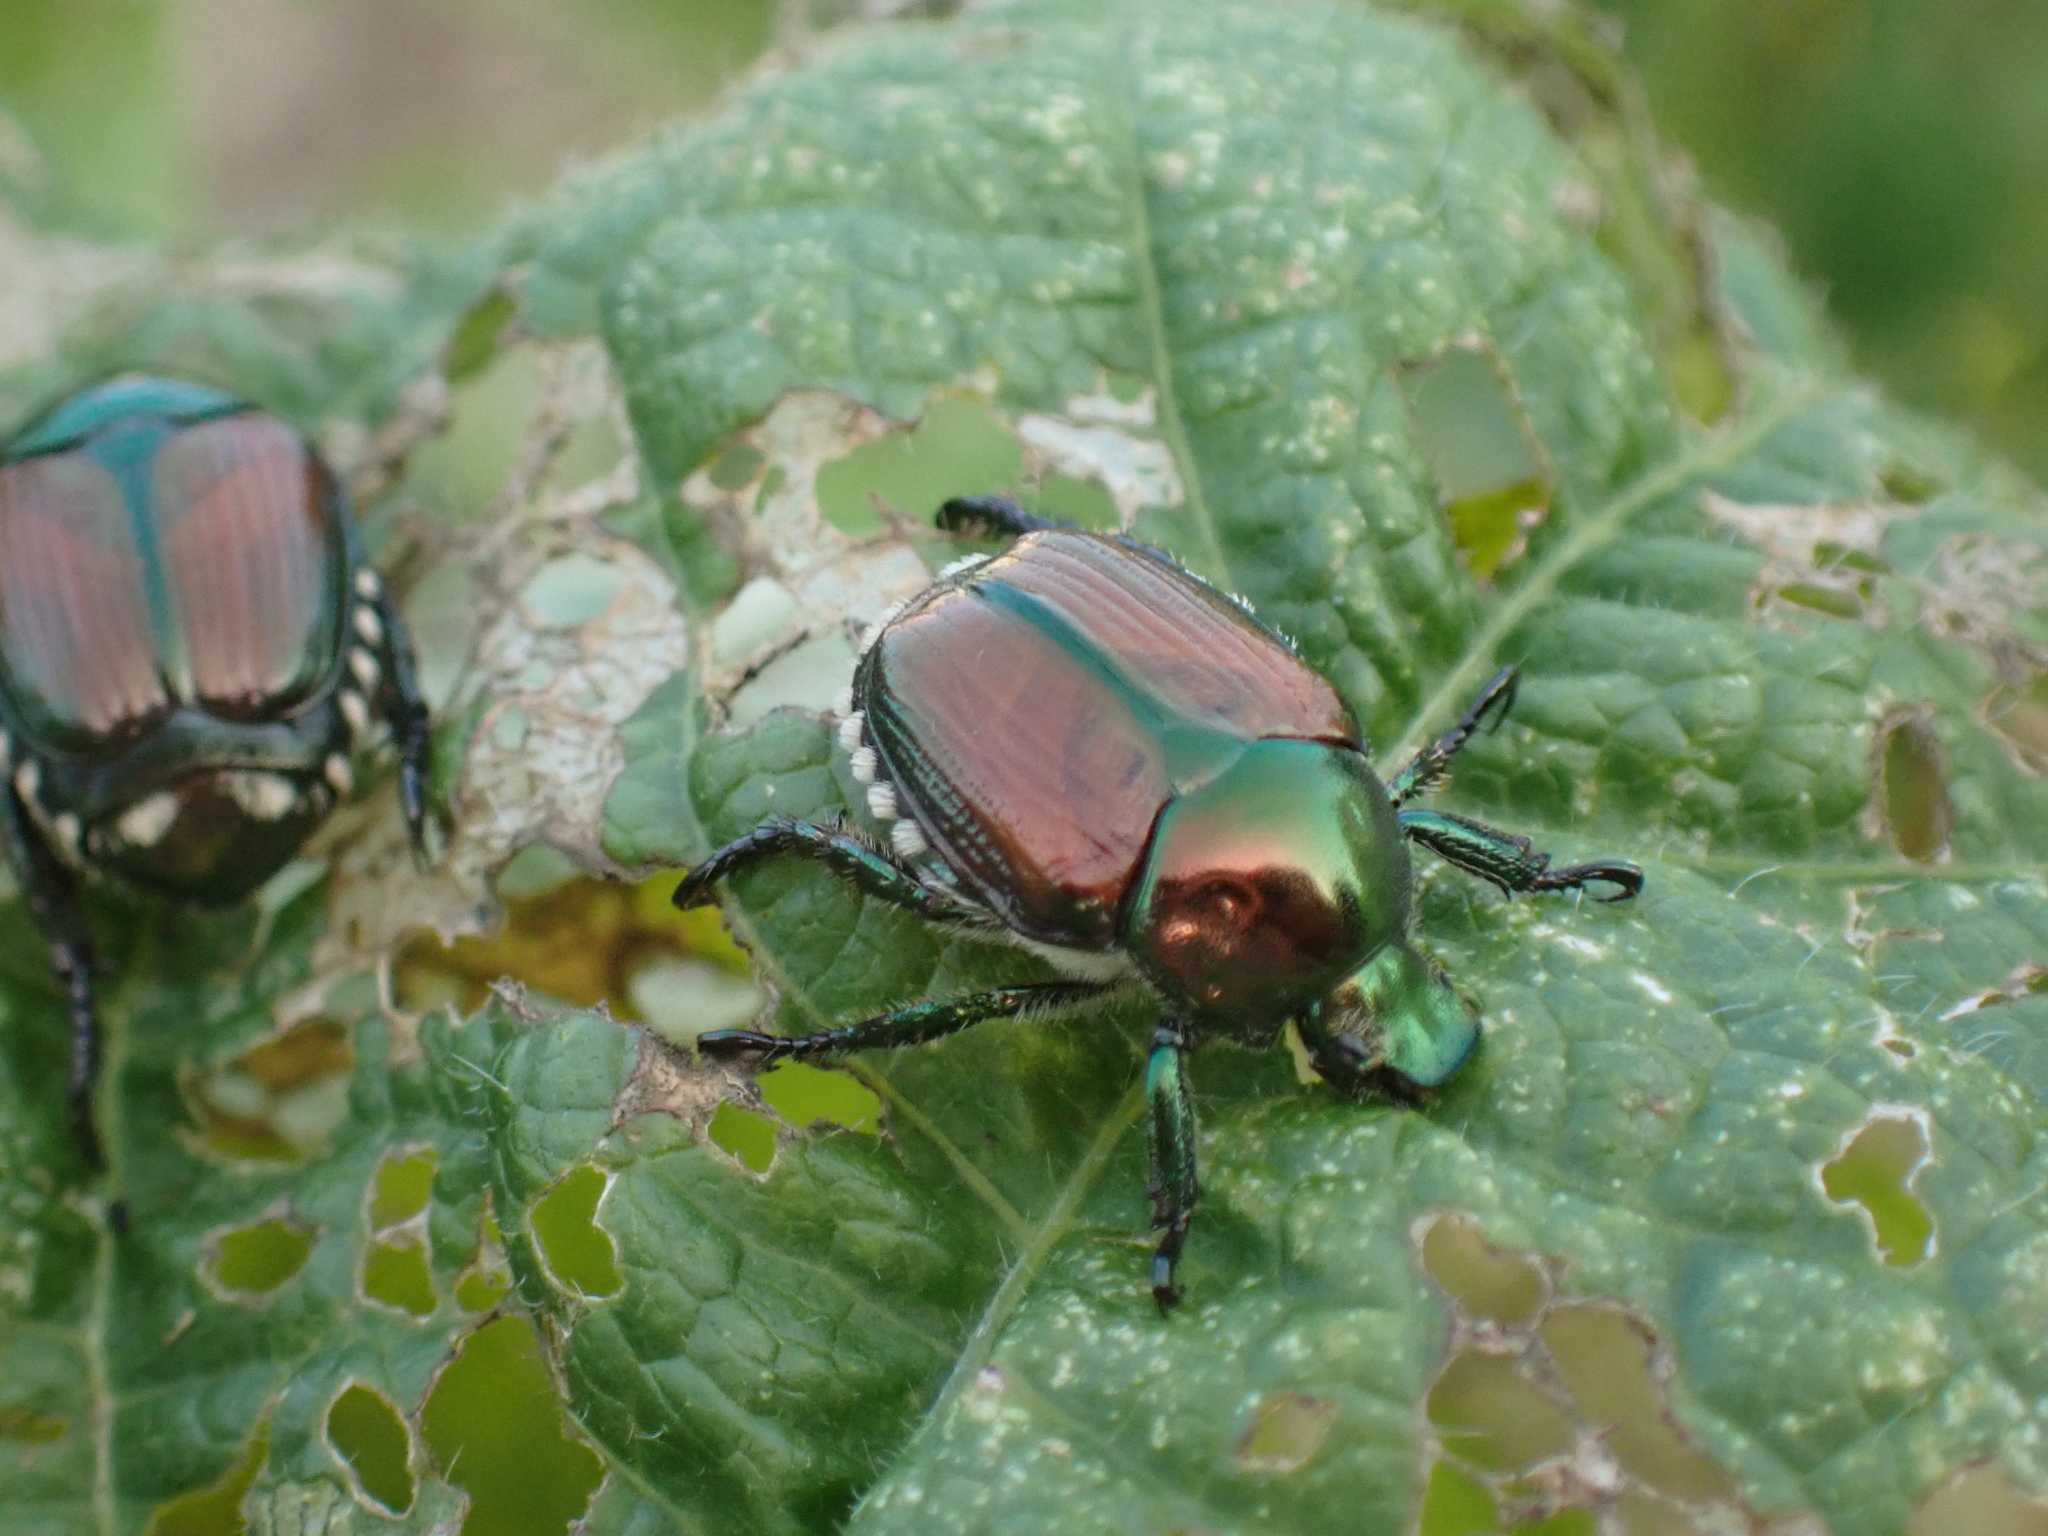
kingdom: Animalia
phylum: Arthropoda
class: Insecta
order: Coleoptera
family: Scarabaeidae
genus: Popillia
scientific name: Popillia japonica
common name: Japanese beetle
